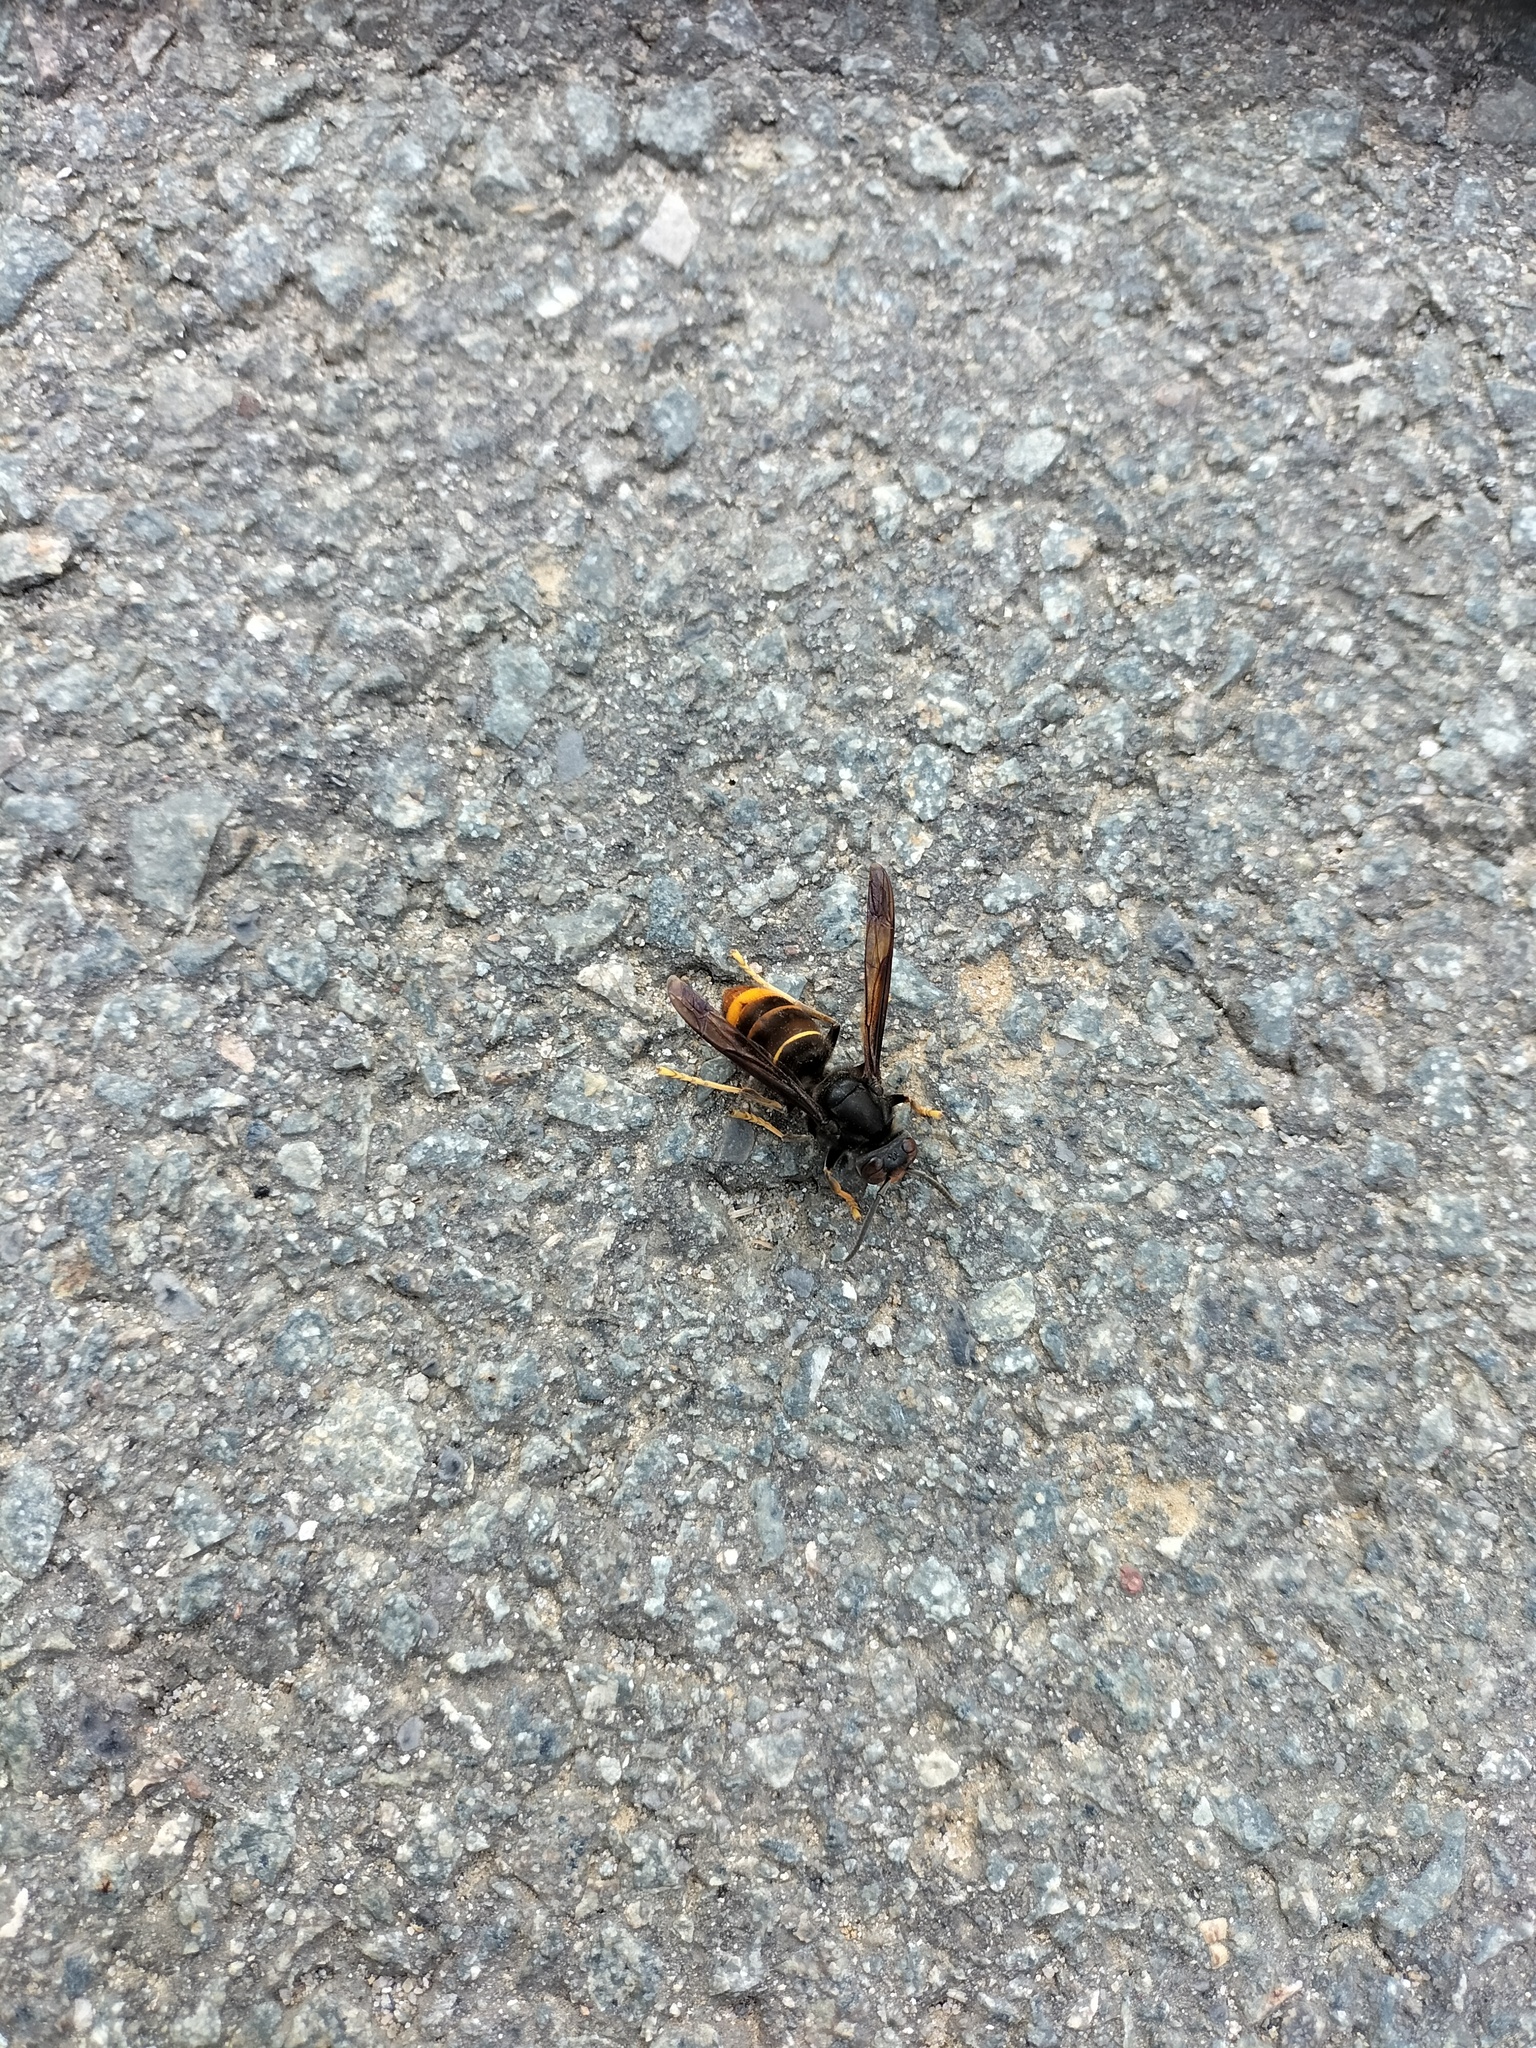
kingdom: Animalia
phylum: Arthropoda
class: Insecta
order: Hymenoptera
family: Vespidae
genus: Vespa
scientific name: Vespa velutina
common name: Asian hornet
